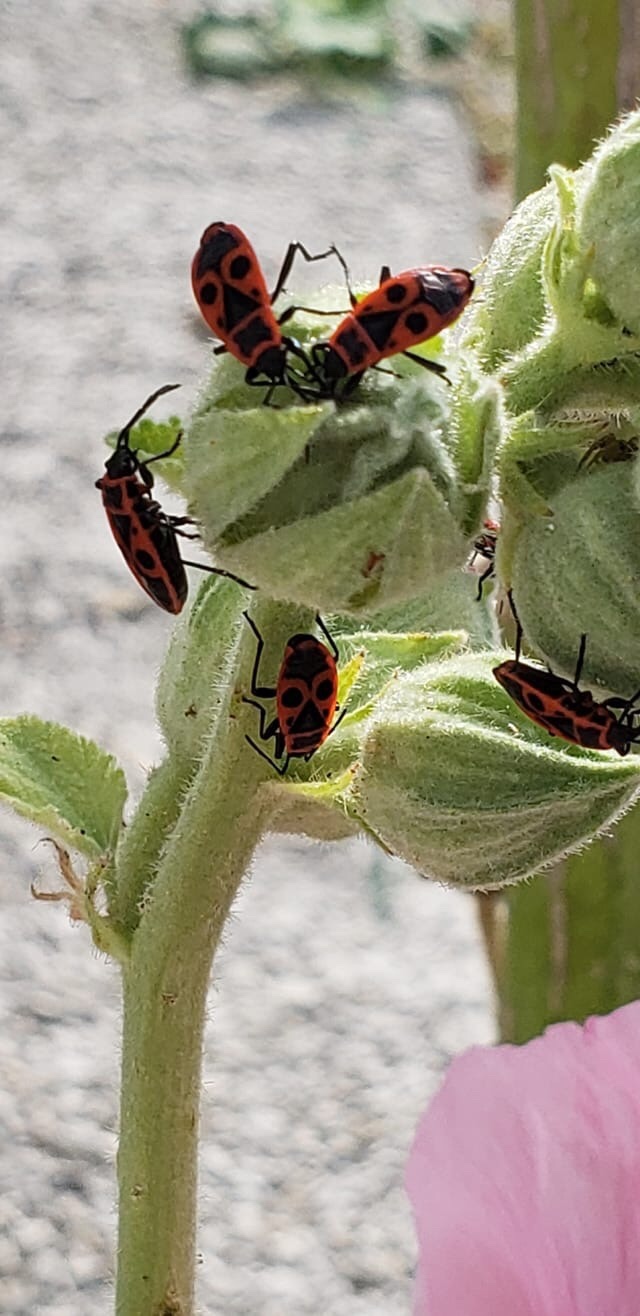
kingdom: Animalia
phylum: Arthropoda
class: Insecta
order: Hemiptera
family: Pyrrhocoridae
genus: Pyrrhocoris
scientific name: Pyrrhocoris apterus
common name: Firebug
